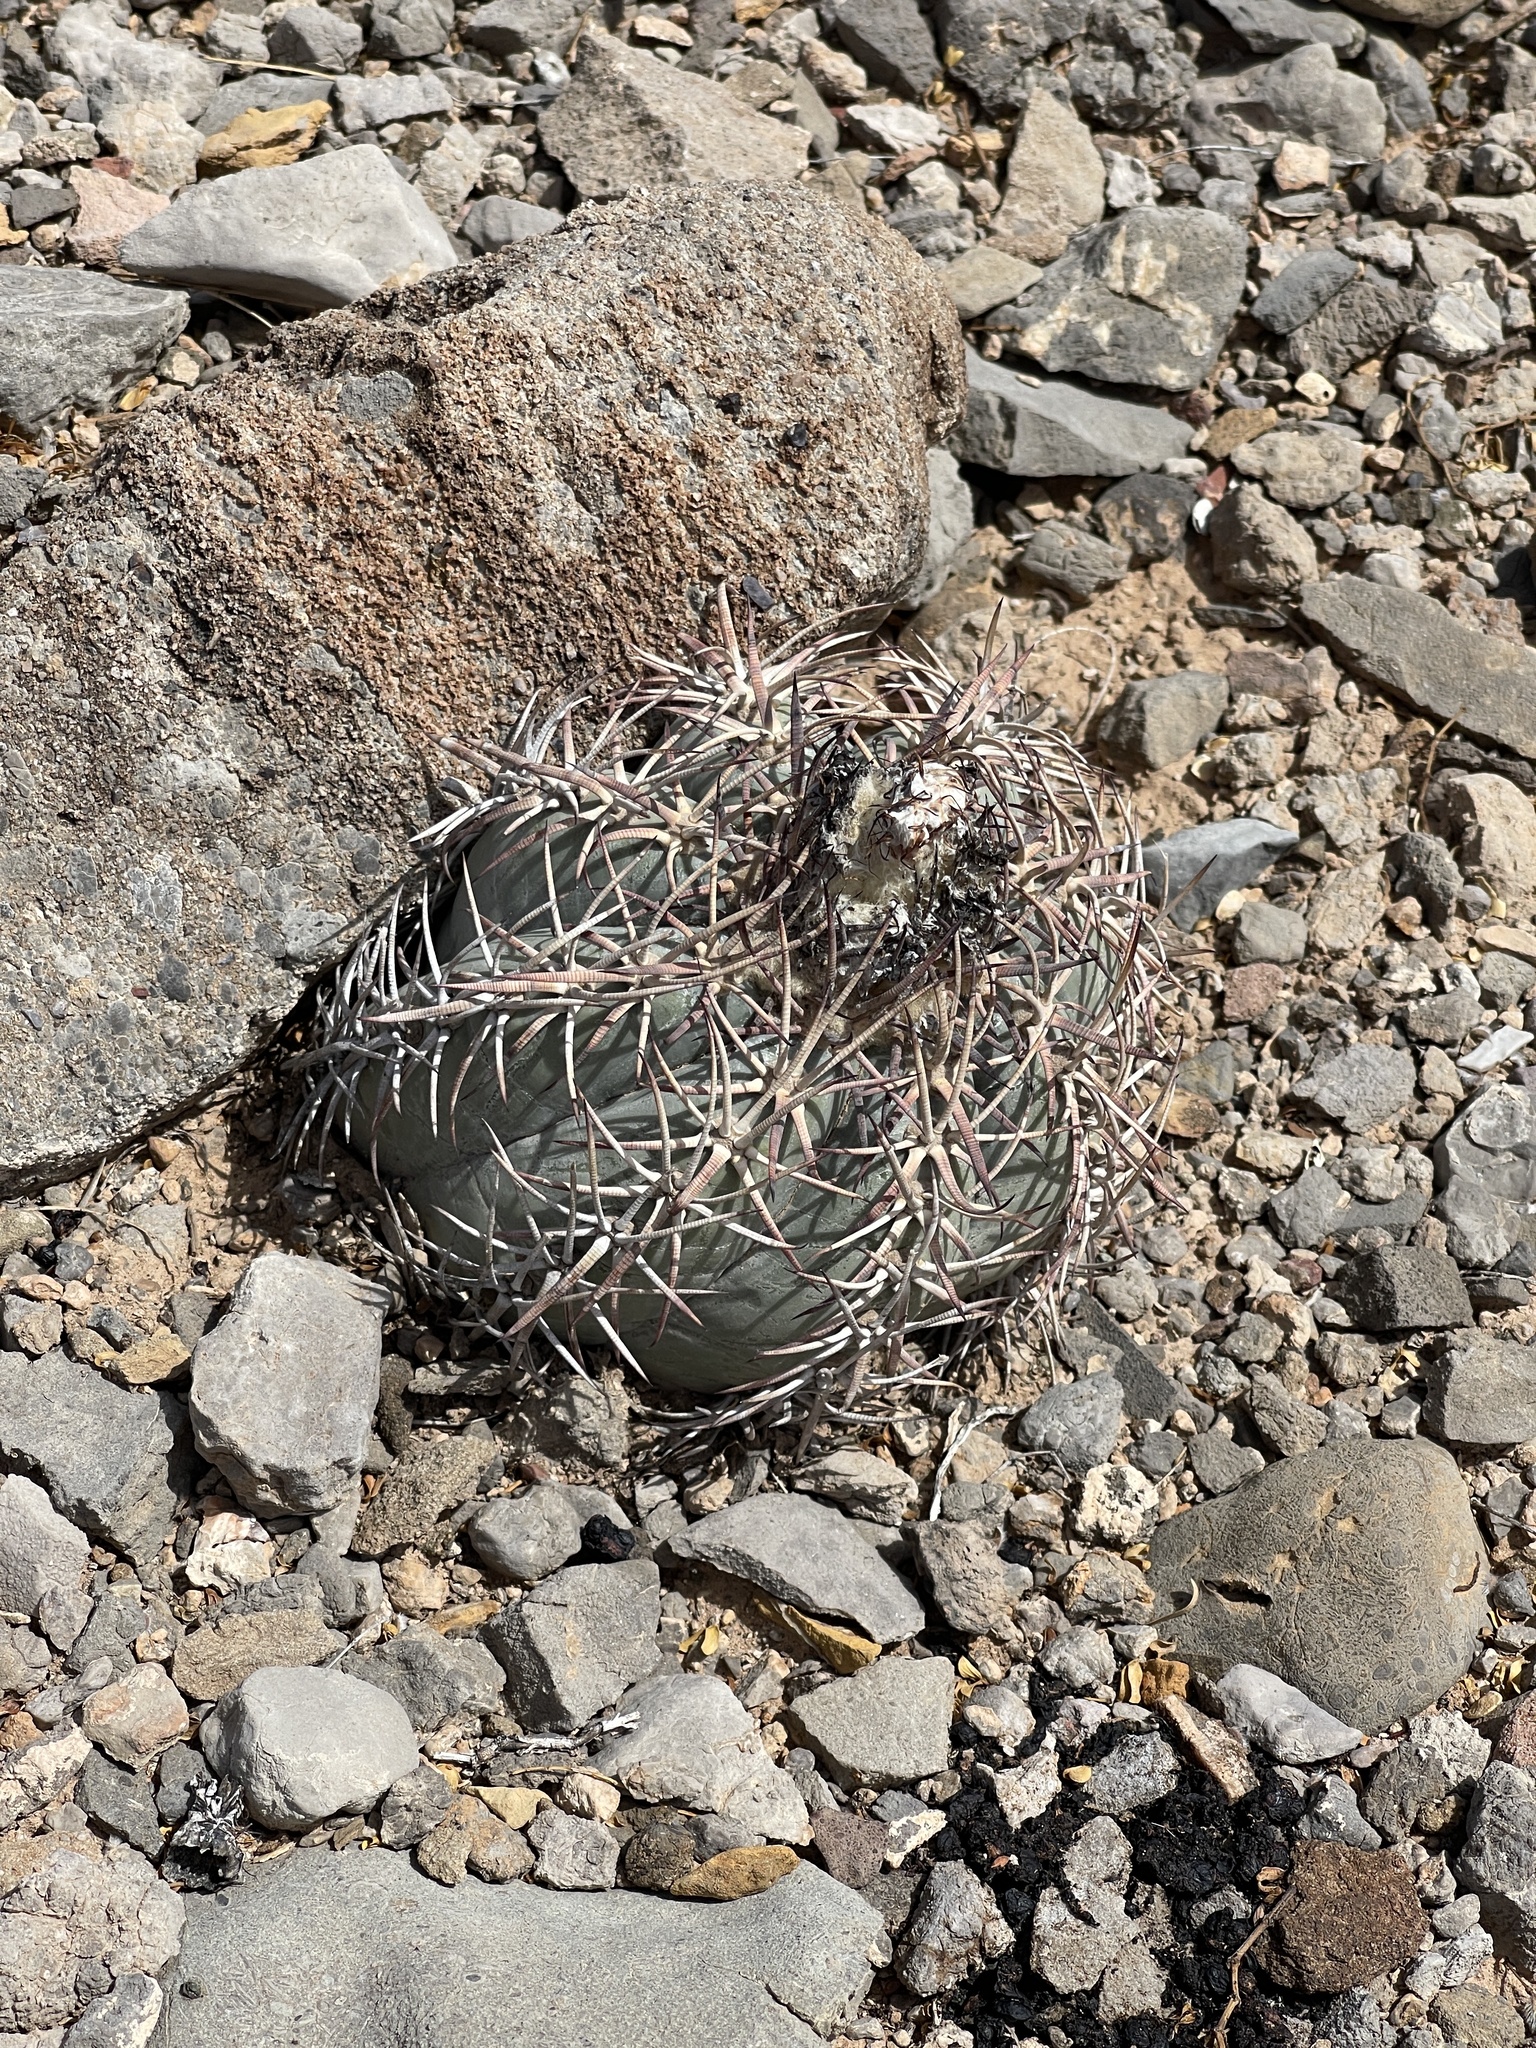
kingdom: Plantae
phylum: Tracheophyta
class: Magnoliopsida
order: Caryophyllales
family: Cactaceae
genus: Echinocactus
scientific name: Echinocactus horizonthalonius
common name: Devilshead
